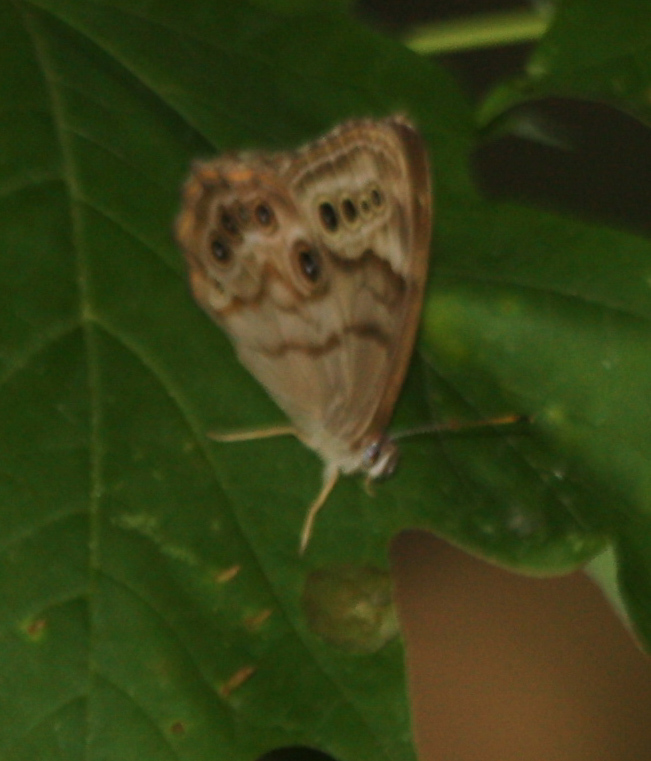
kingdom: Animalia
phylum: Arthropoda
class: Insecta
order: Lepidoptera
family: Nymphalidae
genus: Lethe
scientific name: Lethe anthedon
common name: Northern pearly-eye
